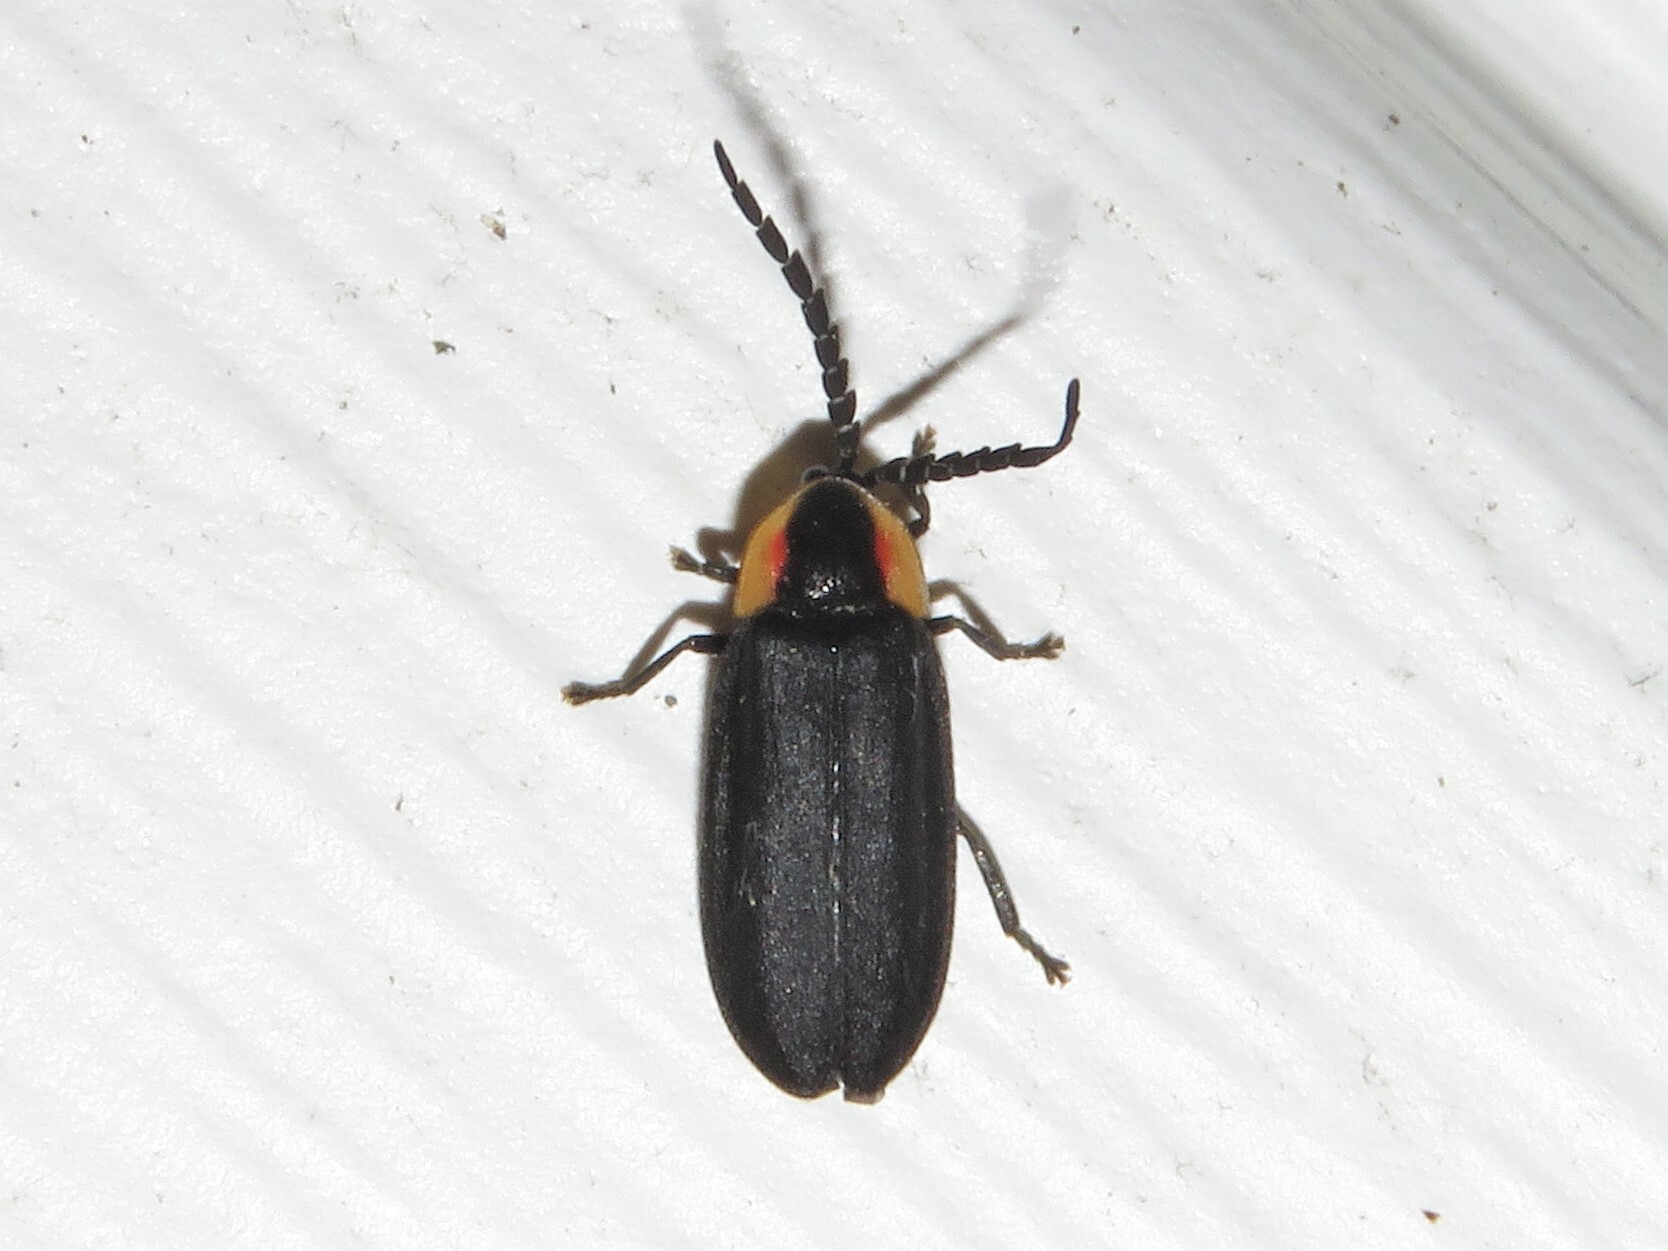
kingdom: Animalia
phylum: Arthropoda
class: Insecta
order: Coleoptera
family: Lampyridae
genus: Lucidota
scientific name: Lucidota atra
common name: Black firefly
